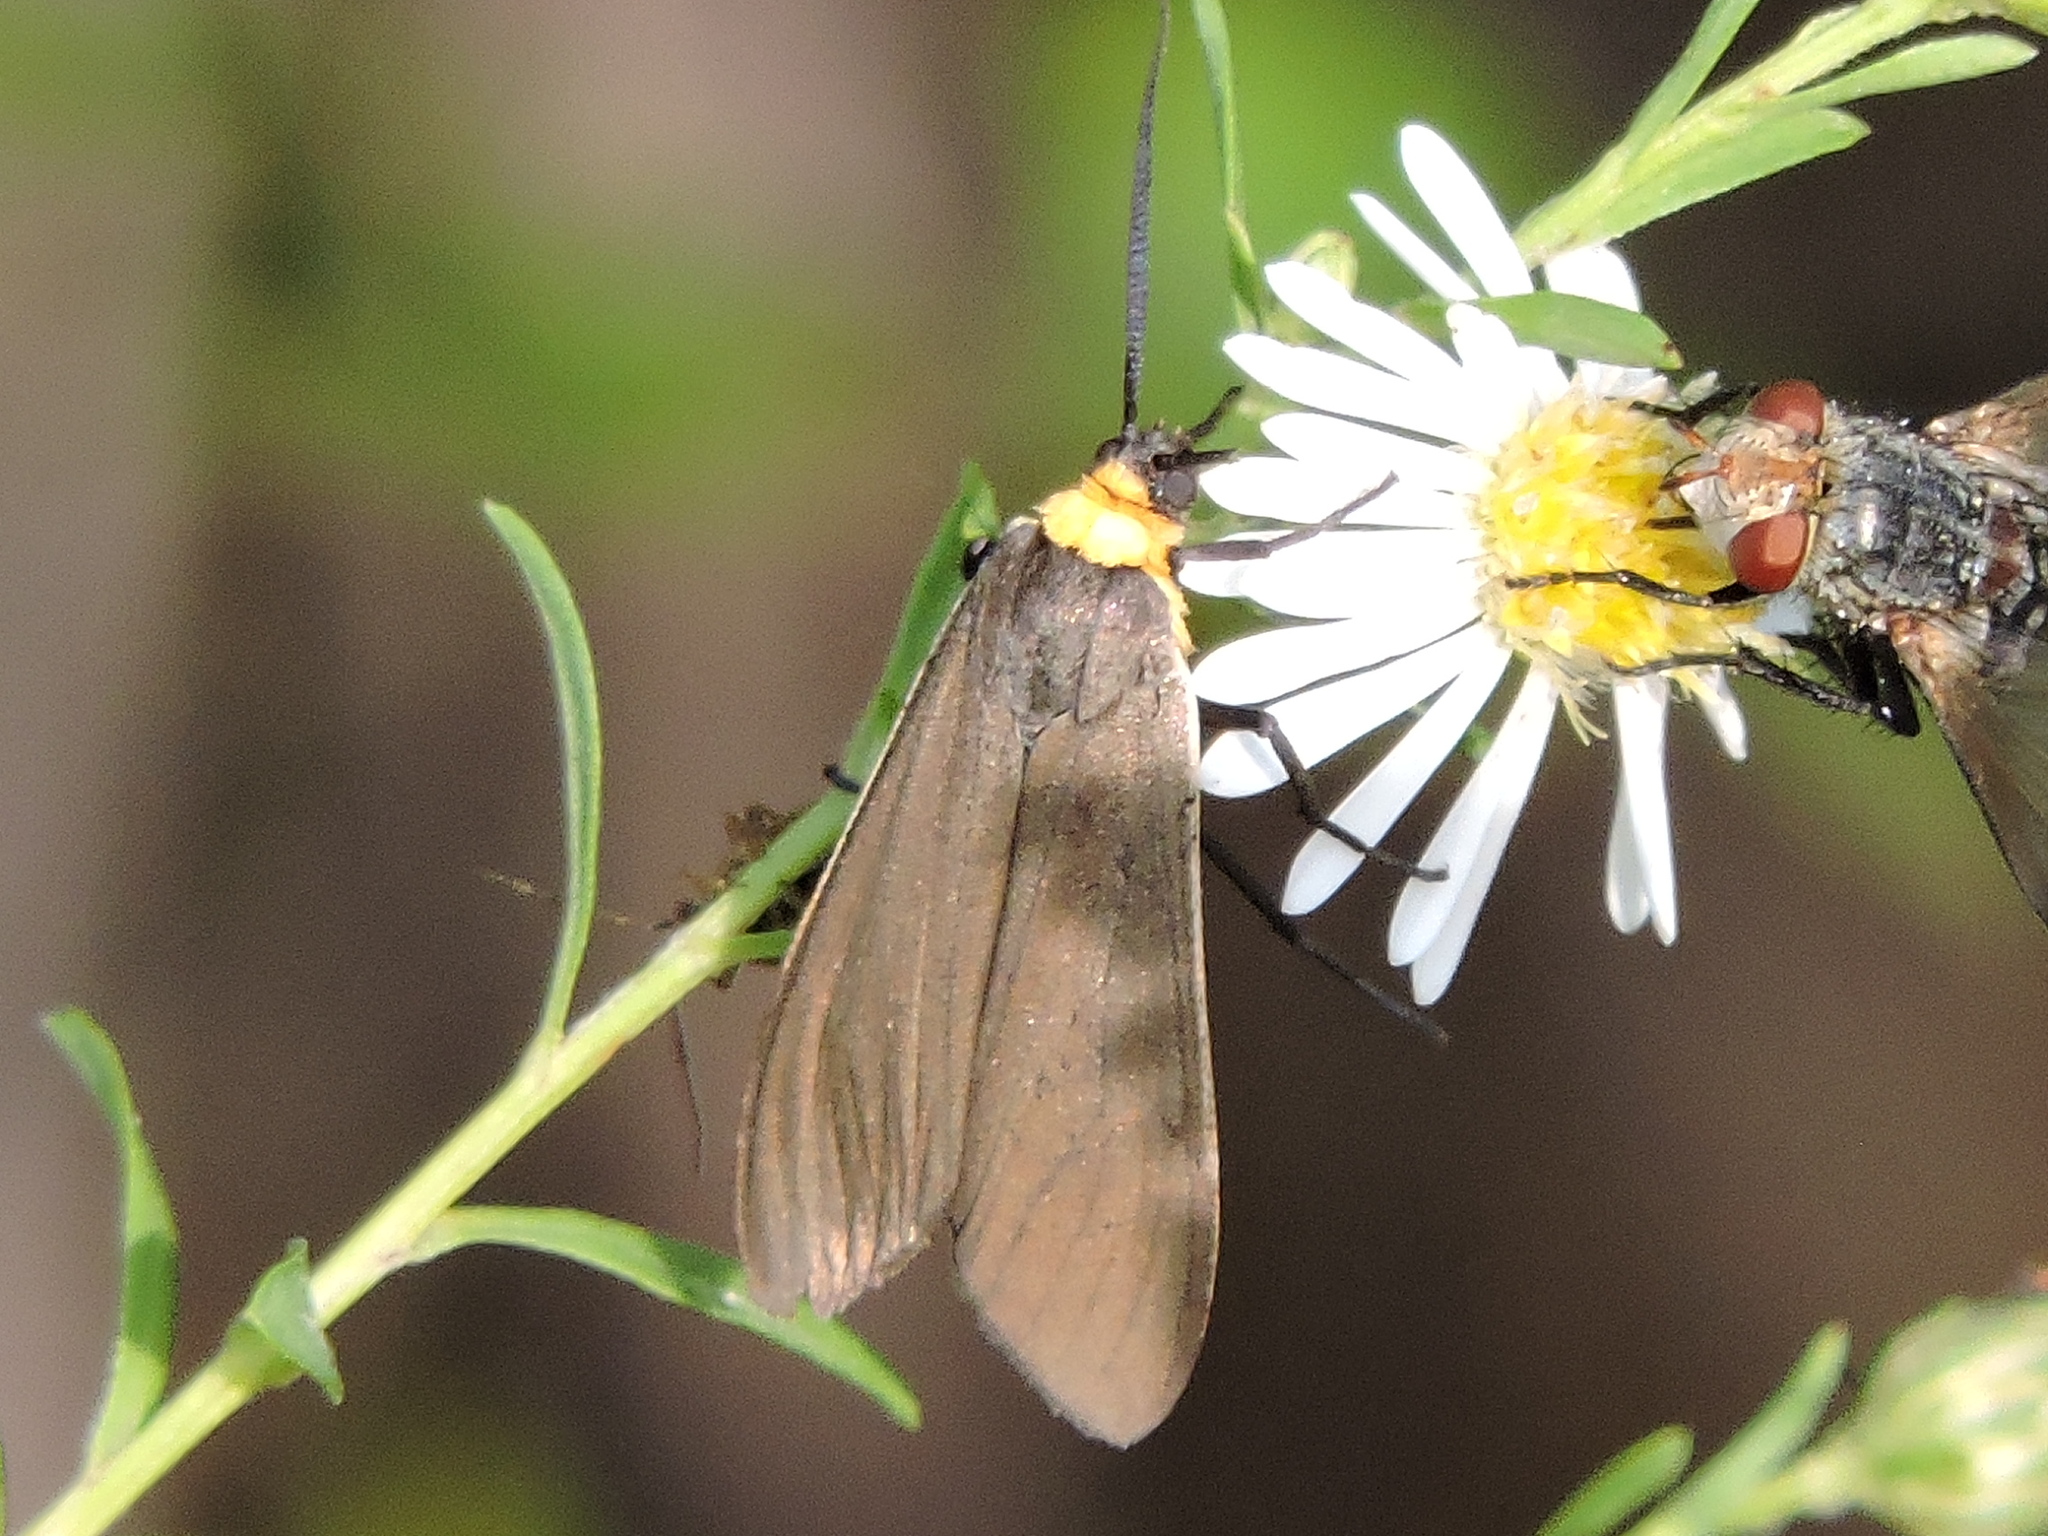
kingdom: Animalia
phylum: Arthropoda
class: Insecta
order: Lepidoptera
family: Erebidae
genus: Cisseps
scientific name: Cisseps fulvicollis
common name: Yellow-collared scape moth
